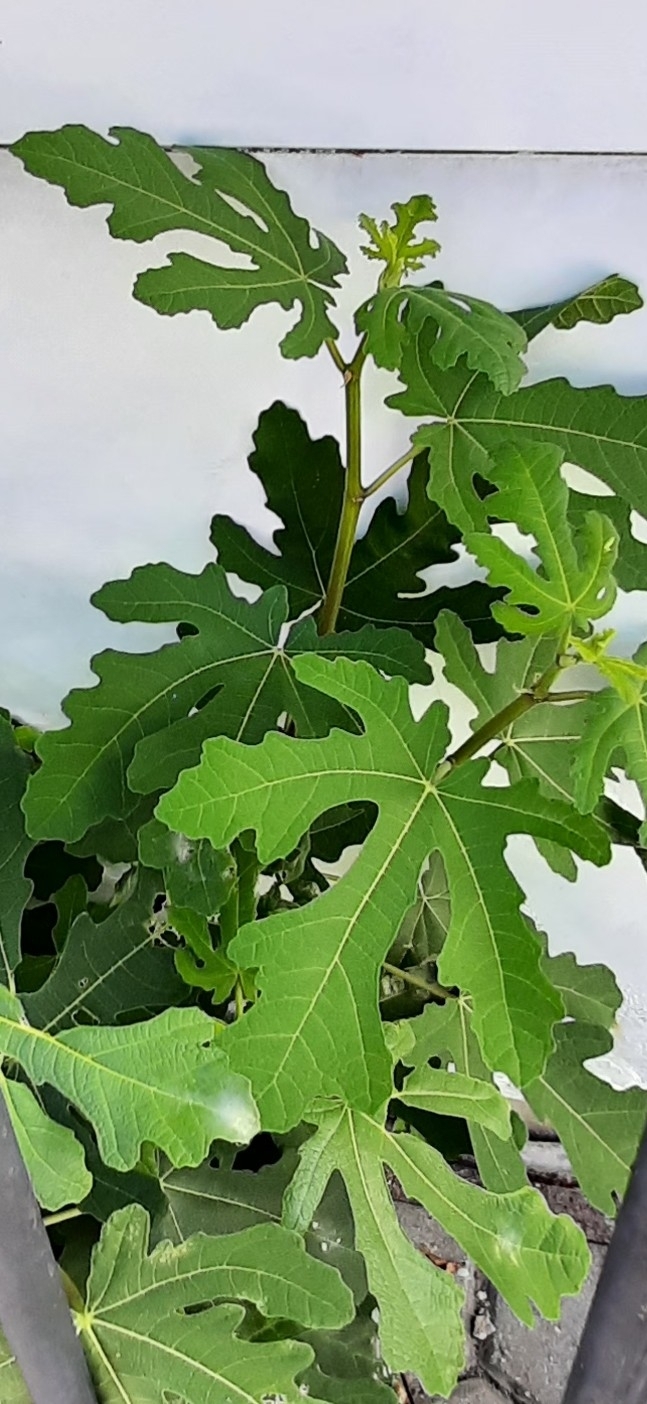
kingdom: Plantae
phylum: Tracheophyta
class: Magnoliopsida
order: Rosales
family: Moraceae
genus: Ficus
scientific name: Ficus carica
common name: Fig
